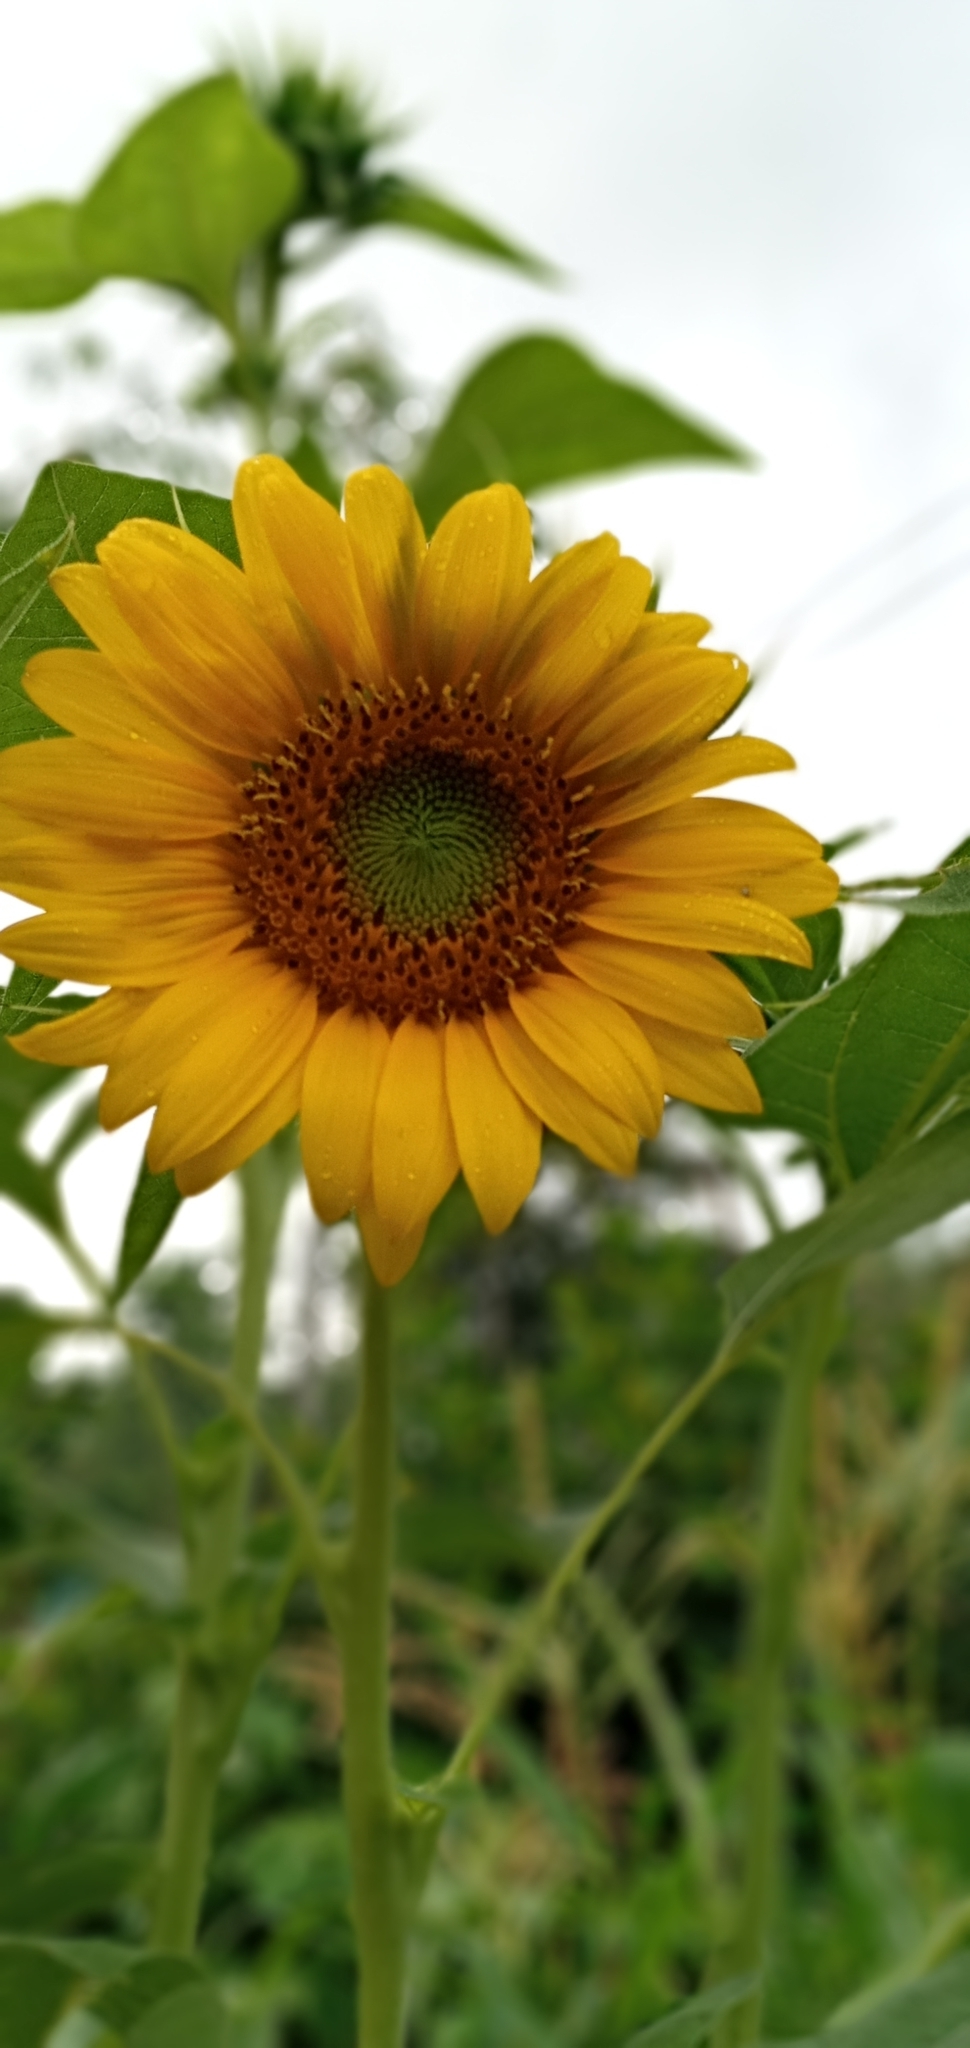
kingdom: Plantae
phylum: Tracheophyta
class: Magnoliopsida
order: Asterales
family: Asteraceae
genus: Helianthus
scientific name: Helianthus annuus
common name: Sunflower
